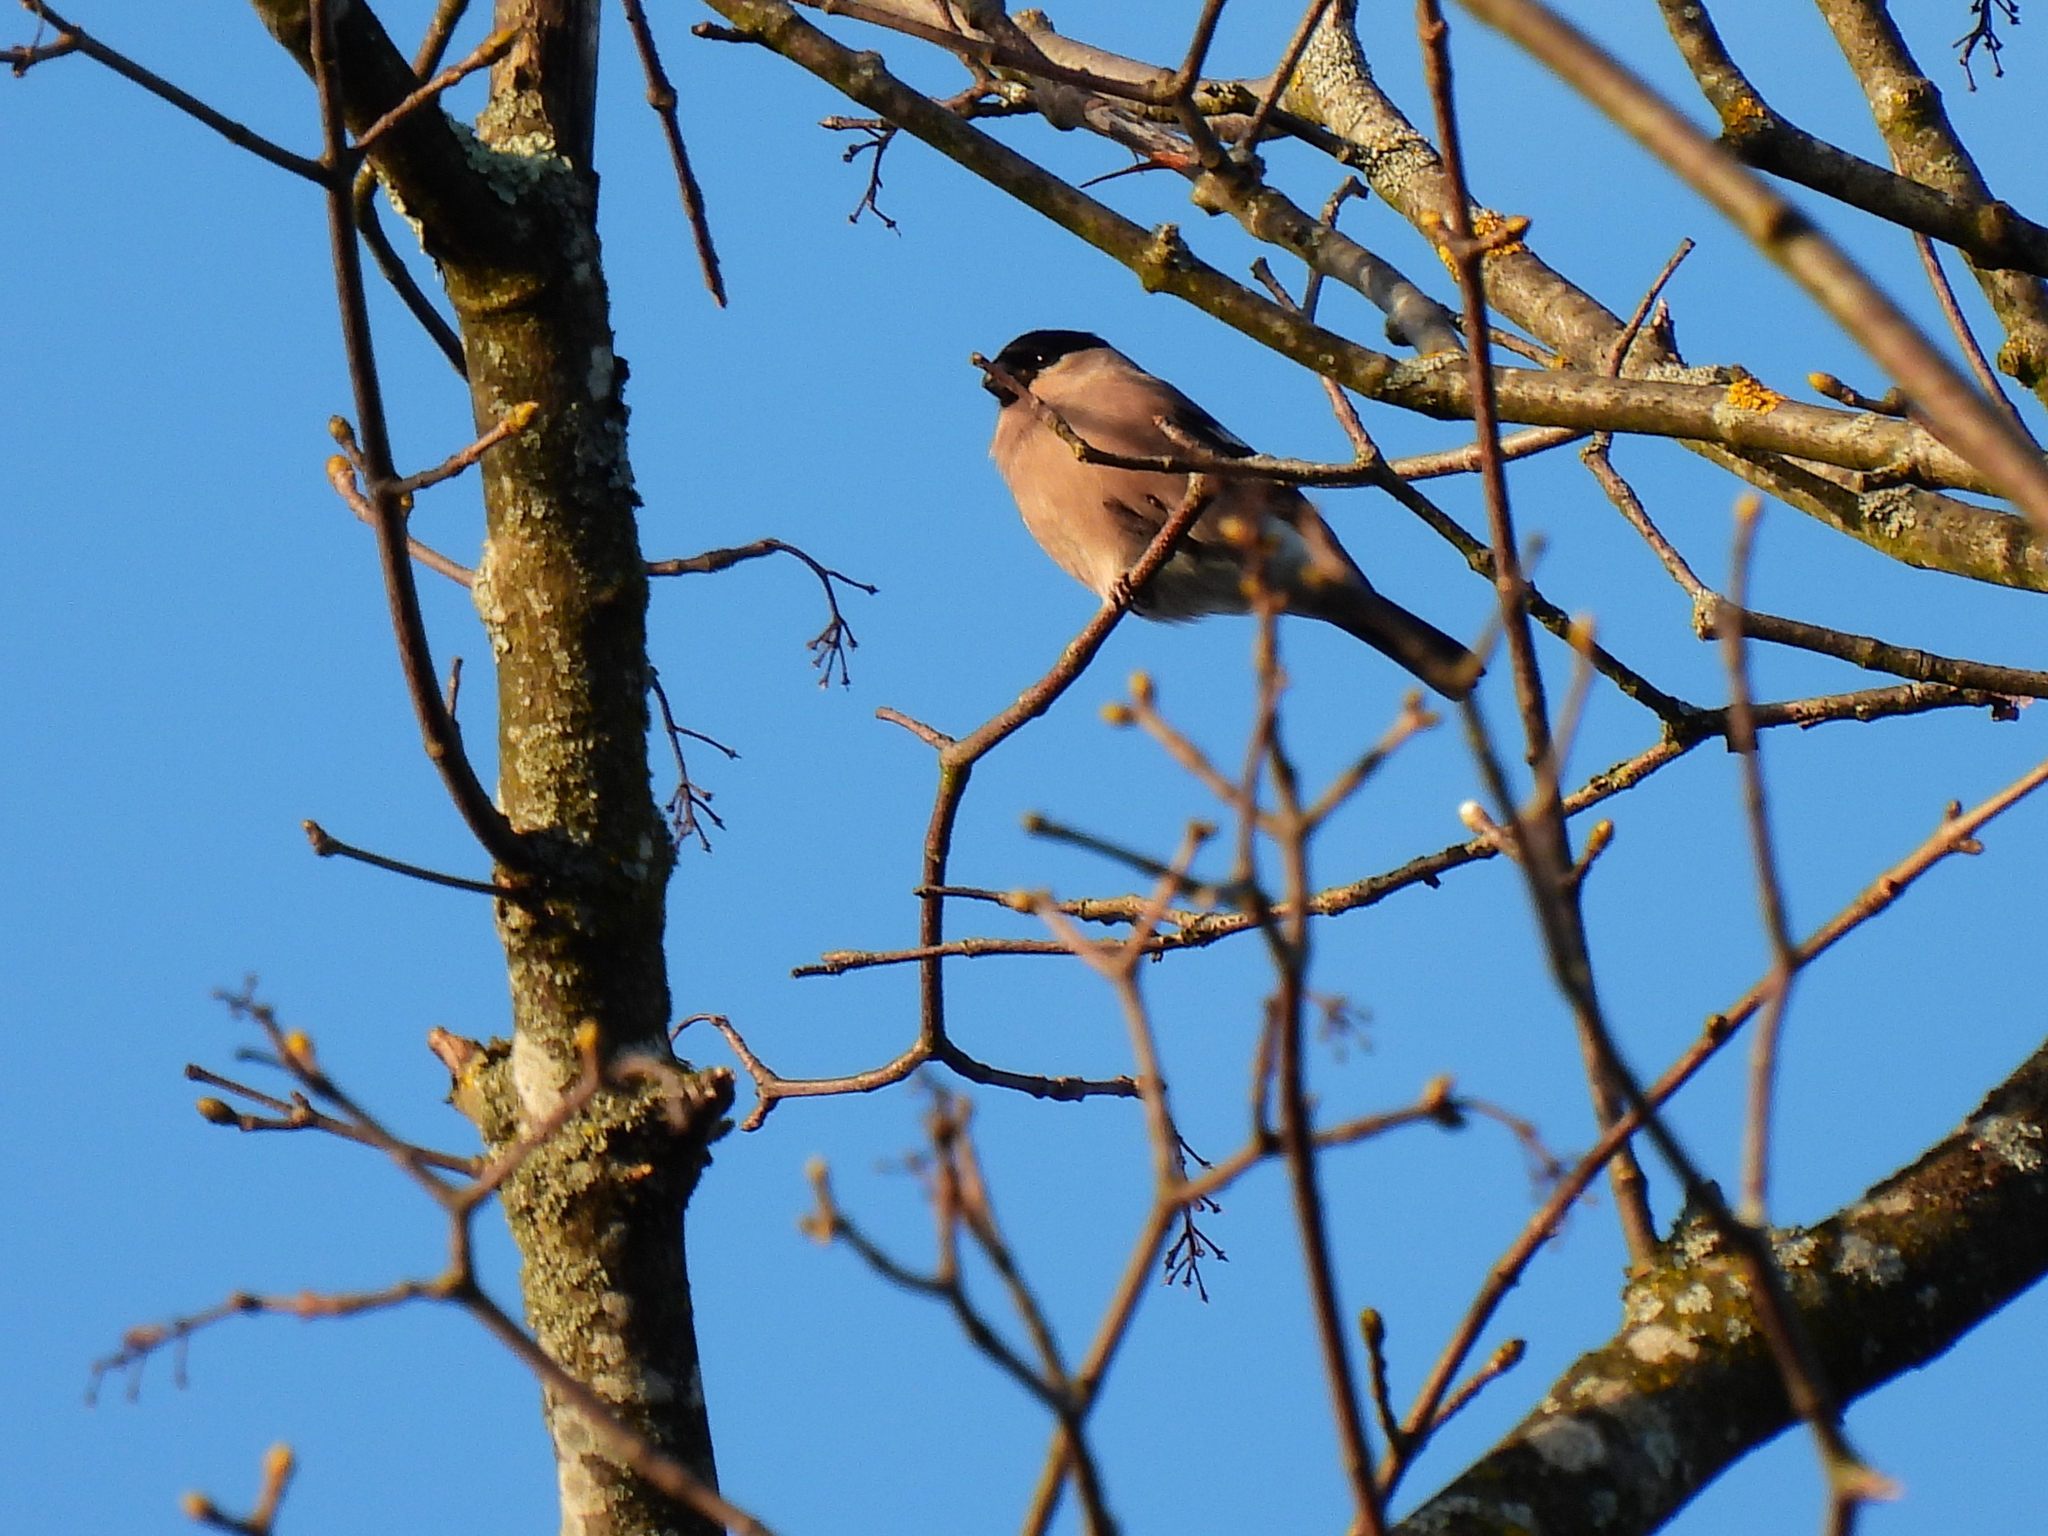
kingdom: Animalia
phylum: Chordata
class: Aves
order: Passeriformes
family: Fringillidae
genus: Pyrrhula
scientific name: Pyrrhula pyrrhula
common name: Eurasian bullfinch
